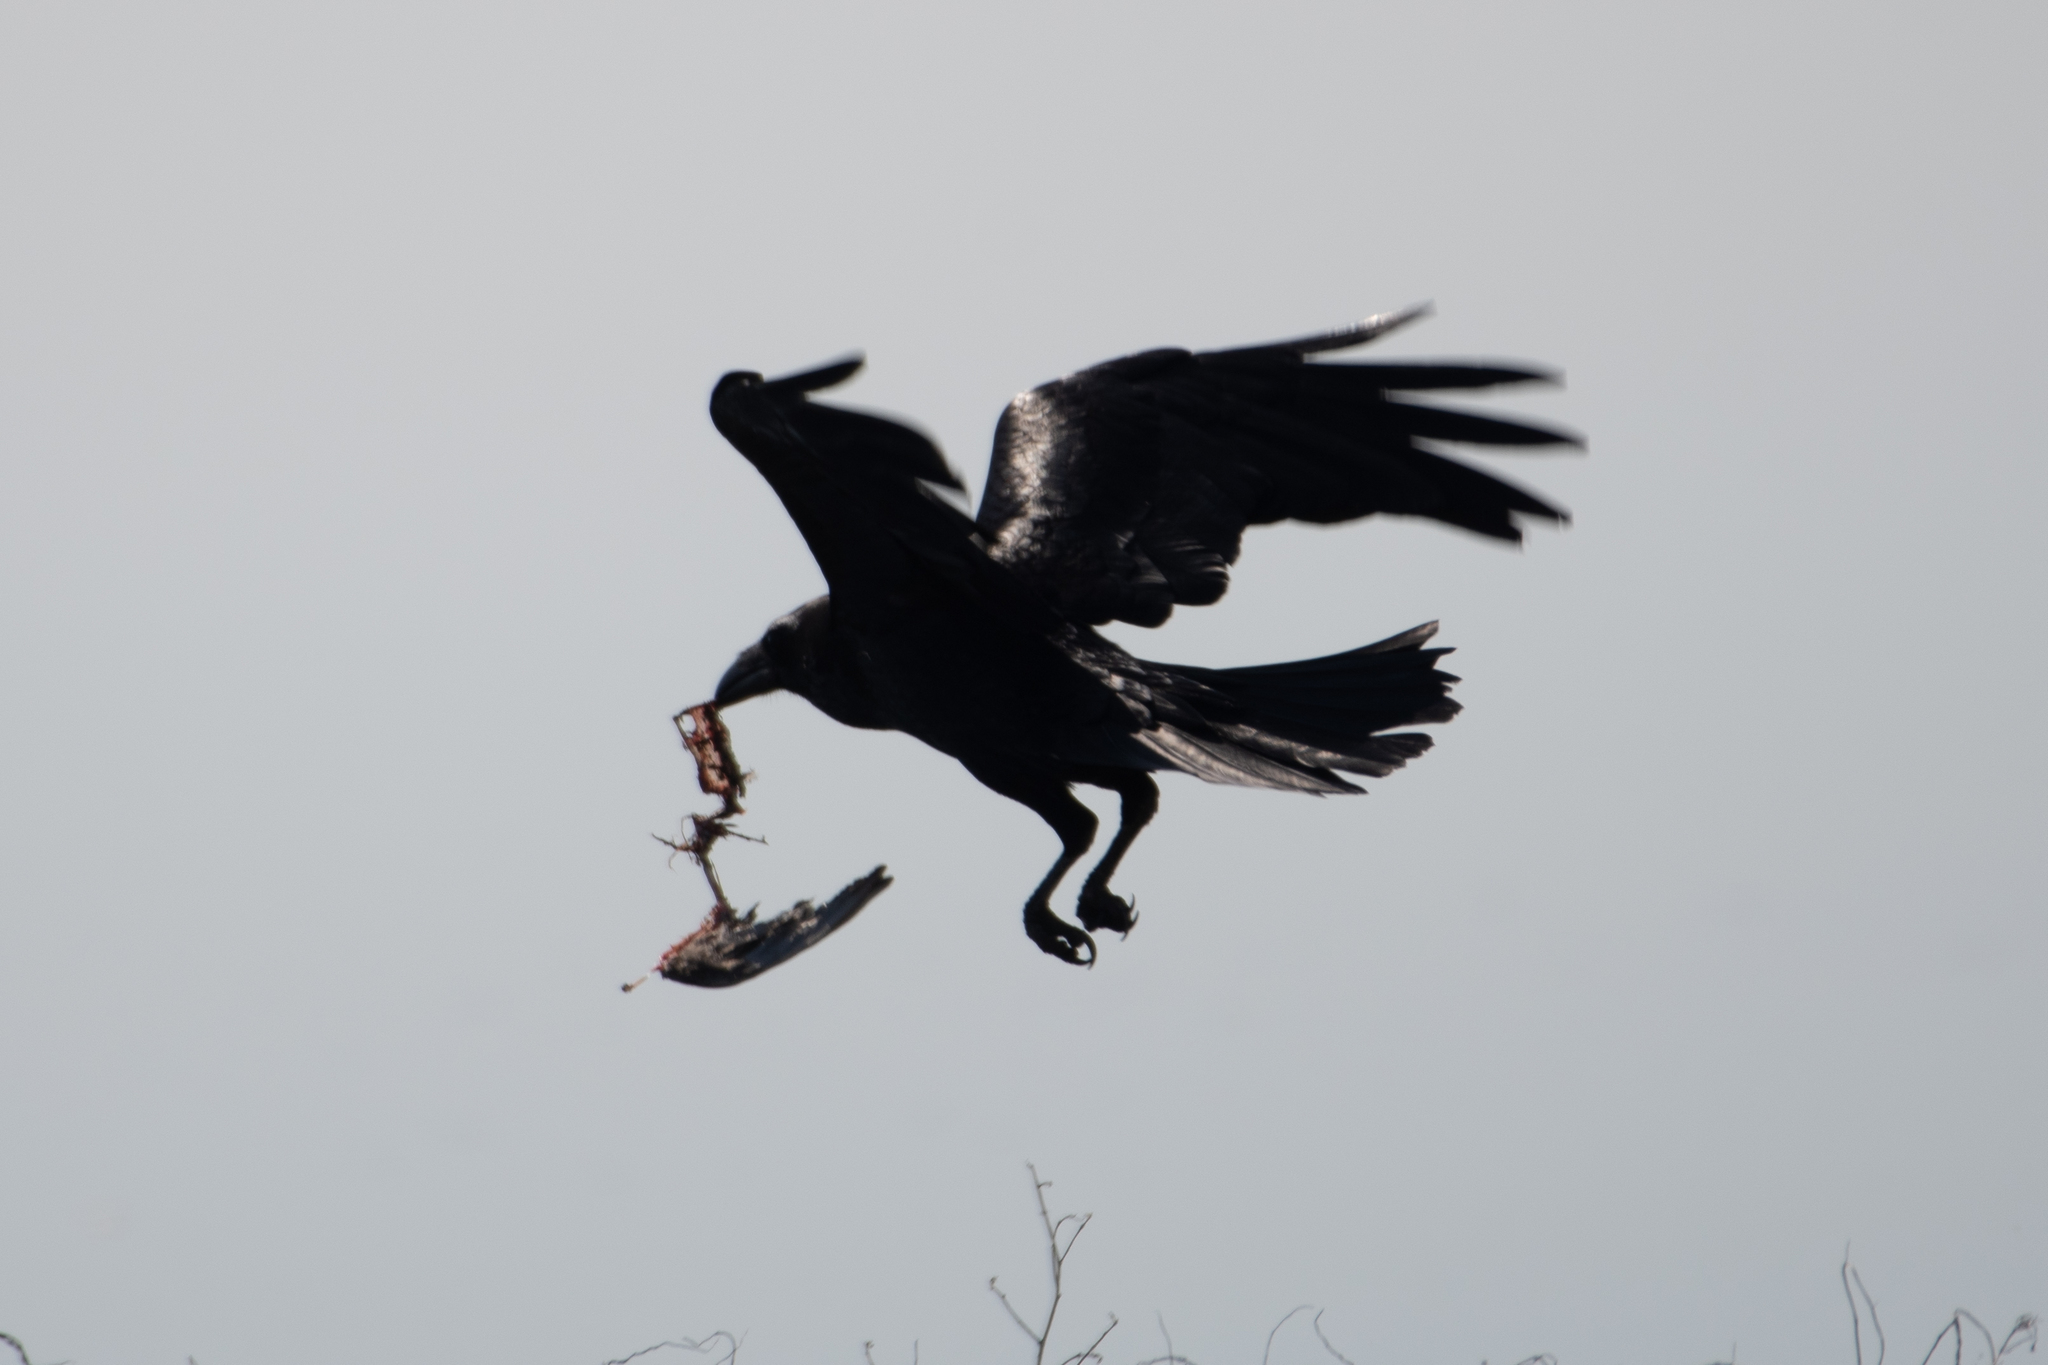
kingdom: Animalia
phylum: Chordata
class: Aves
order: Passeriformes
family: Corvidae
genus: Corvus
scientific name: Corvus corax
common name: Common raven
